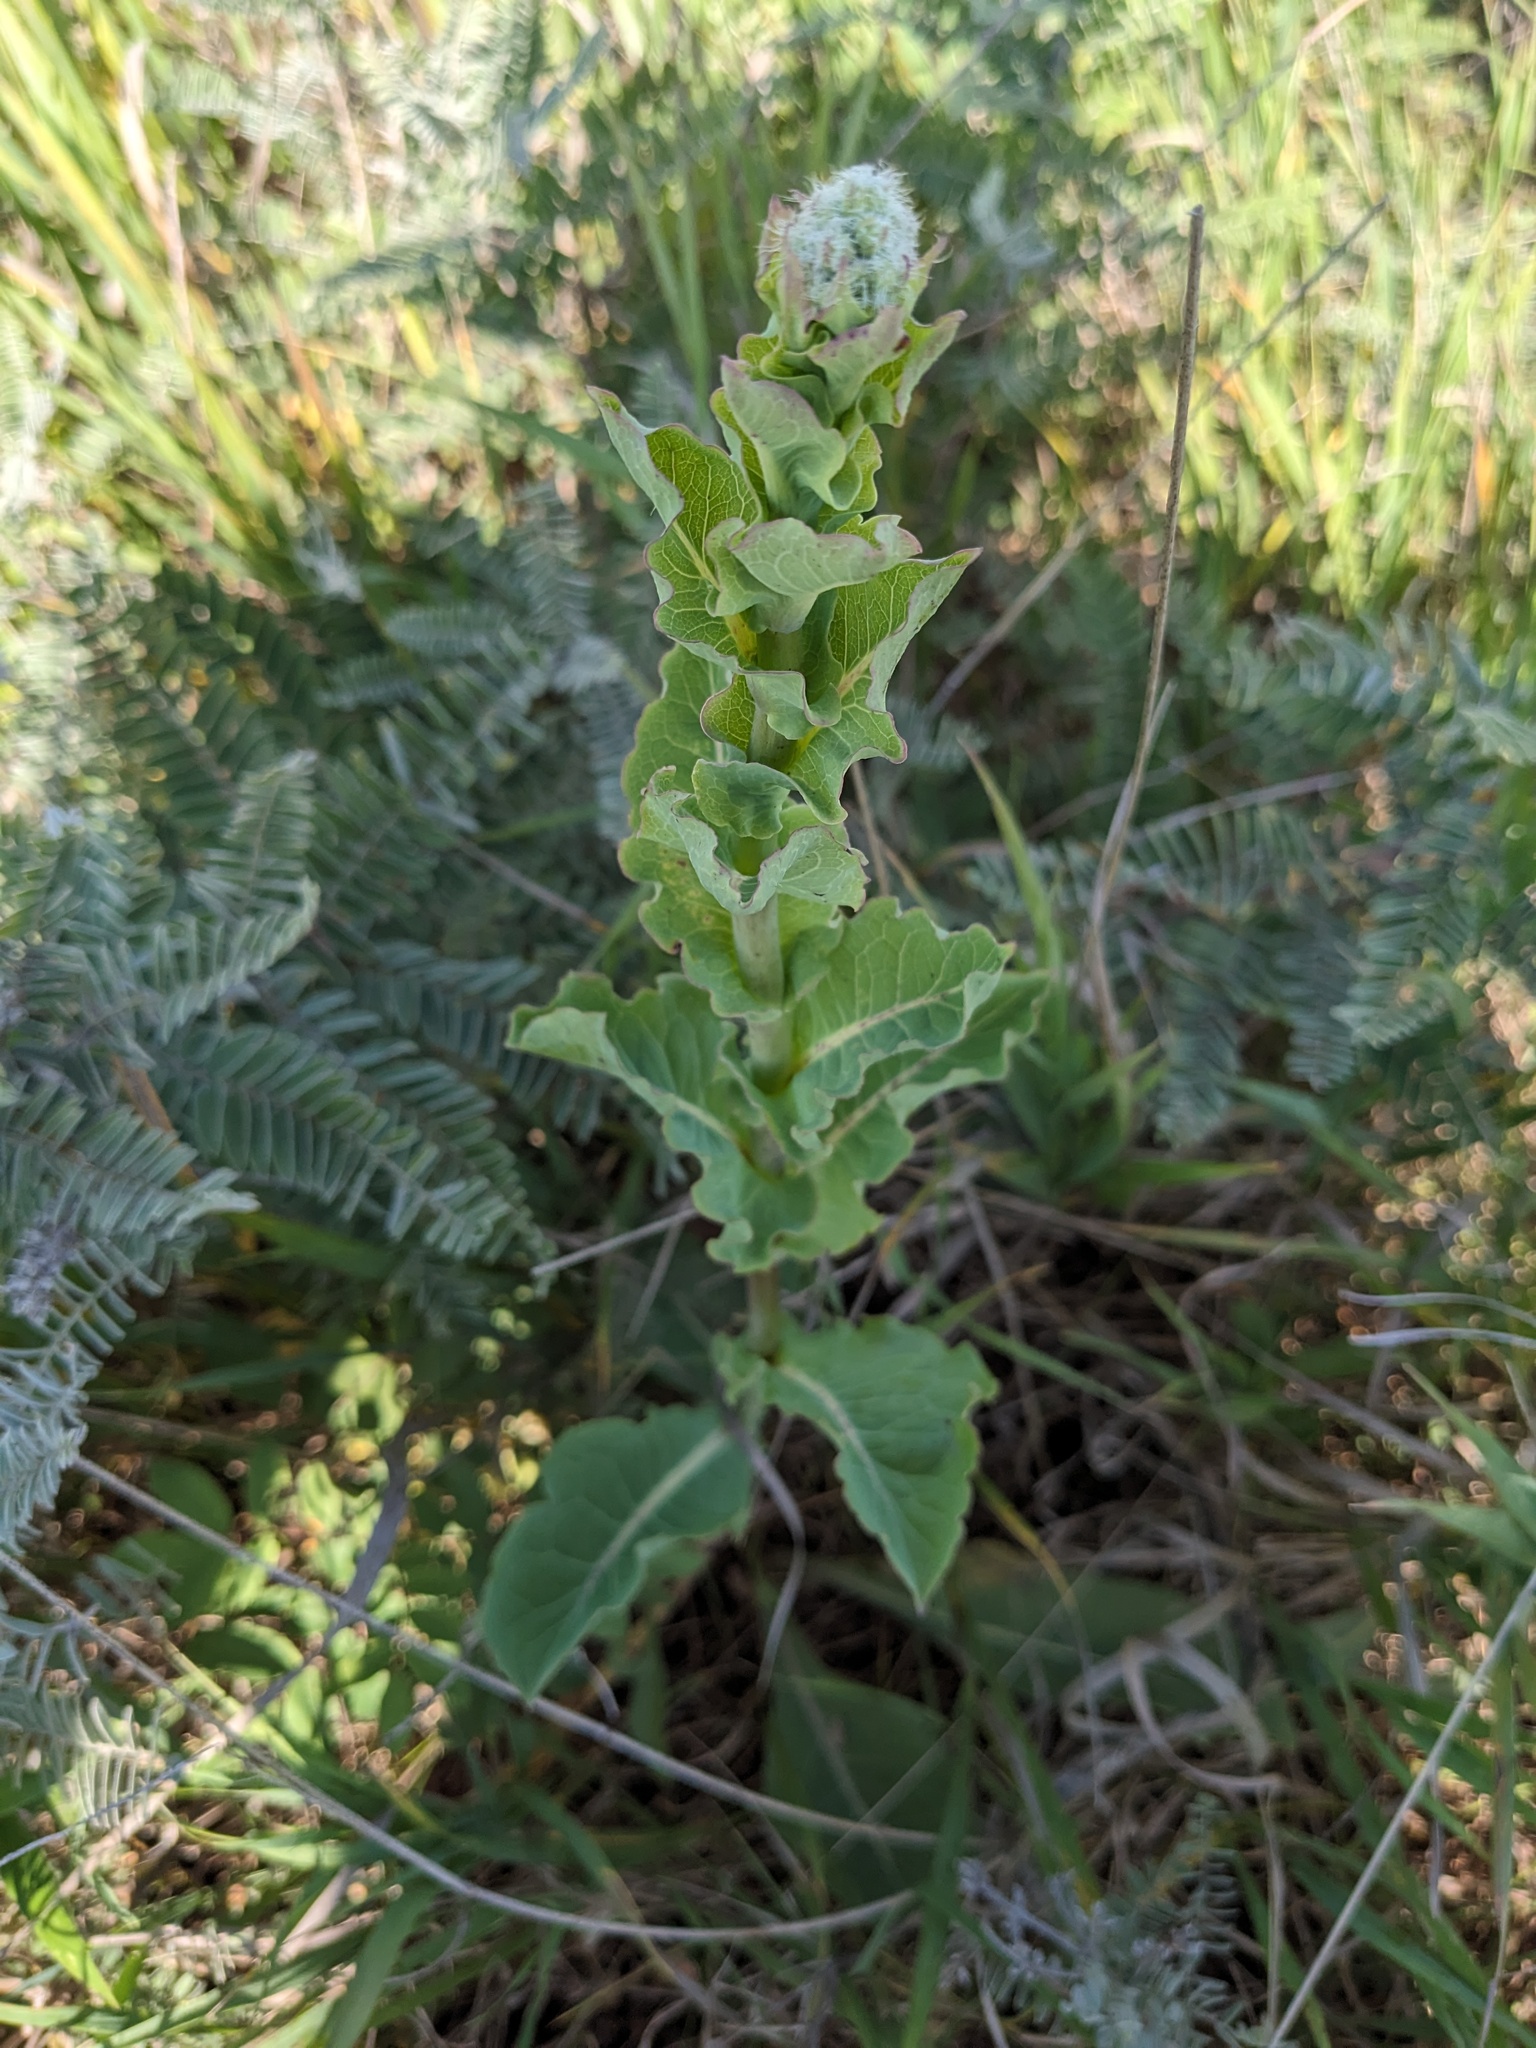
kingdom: Plantae
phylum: Tracheophyta
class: Magnoliopsida
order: Asterales
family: Asteraceae
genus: Nabalus
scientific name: Nabalus racemosus
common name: Glaucous white lettuce
